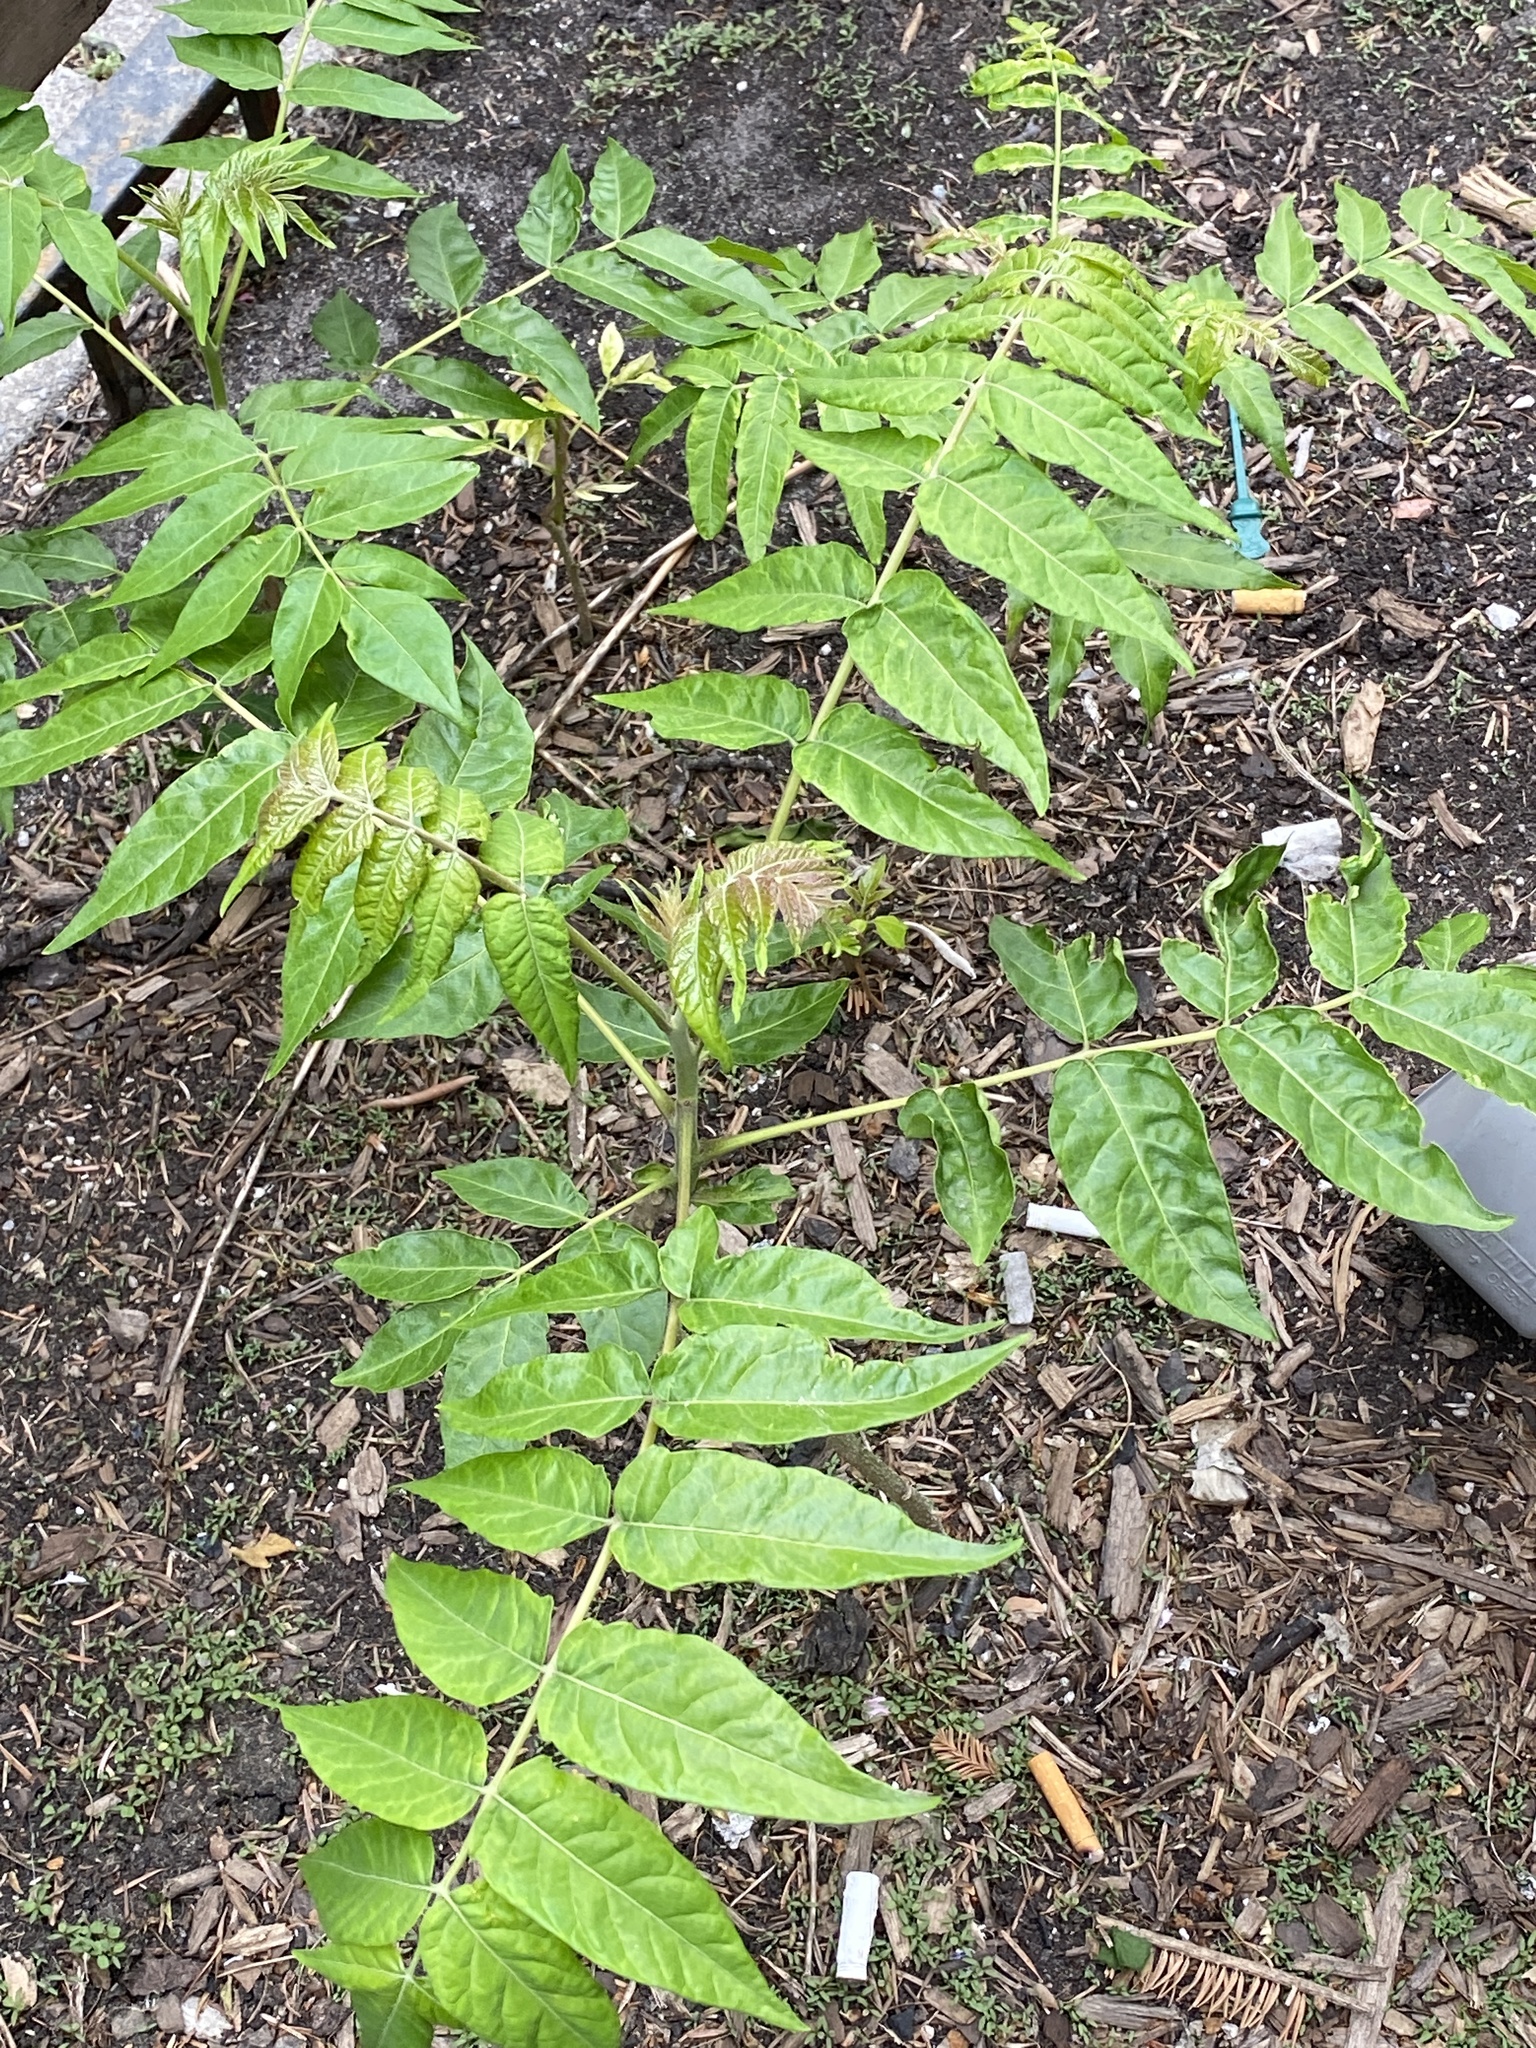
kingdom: Plantae
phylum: Tracheophyta
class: Magnoliopsida
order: Sapindales
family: Simaroubaceae
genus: Ailanthus
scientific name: Ailanthus altissima
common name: Tree-of-heaven
